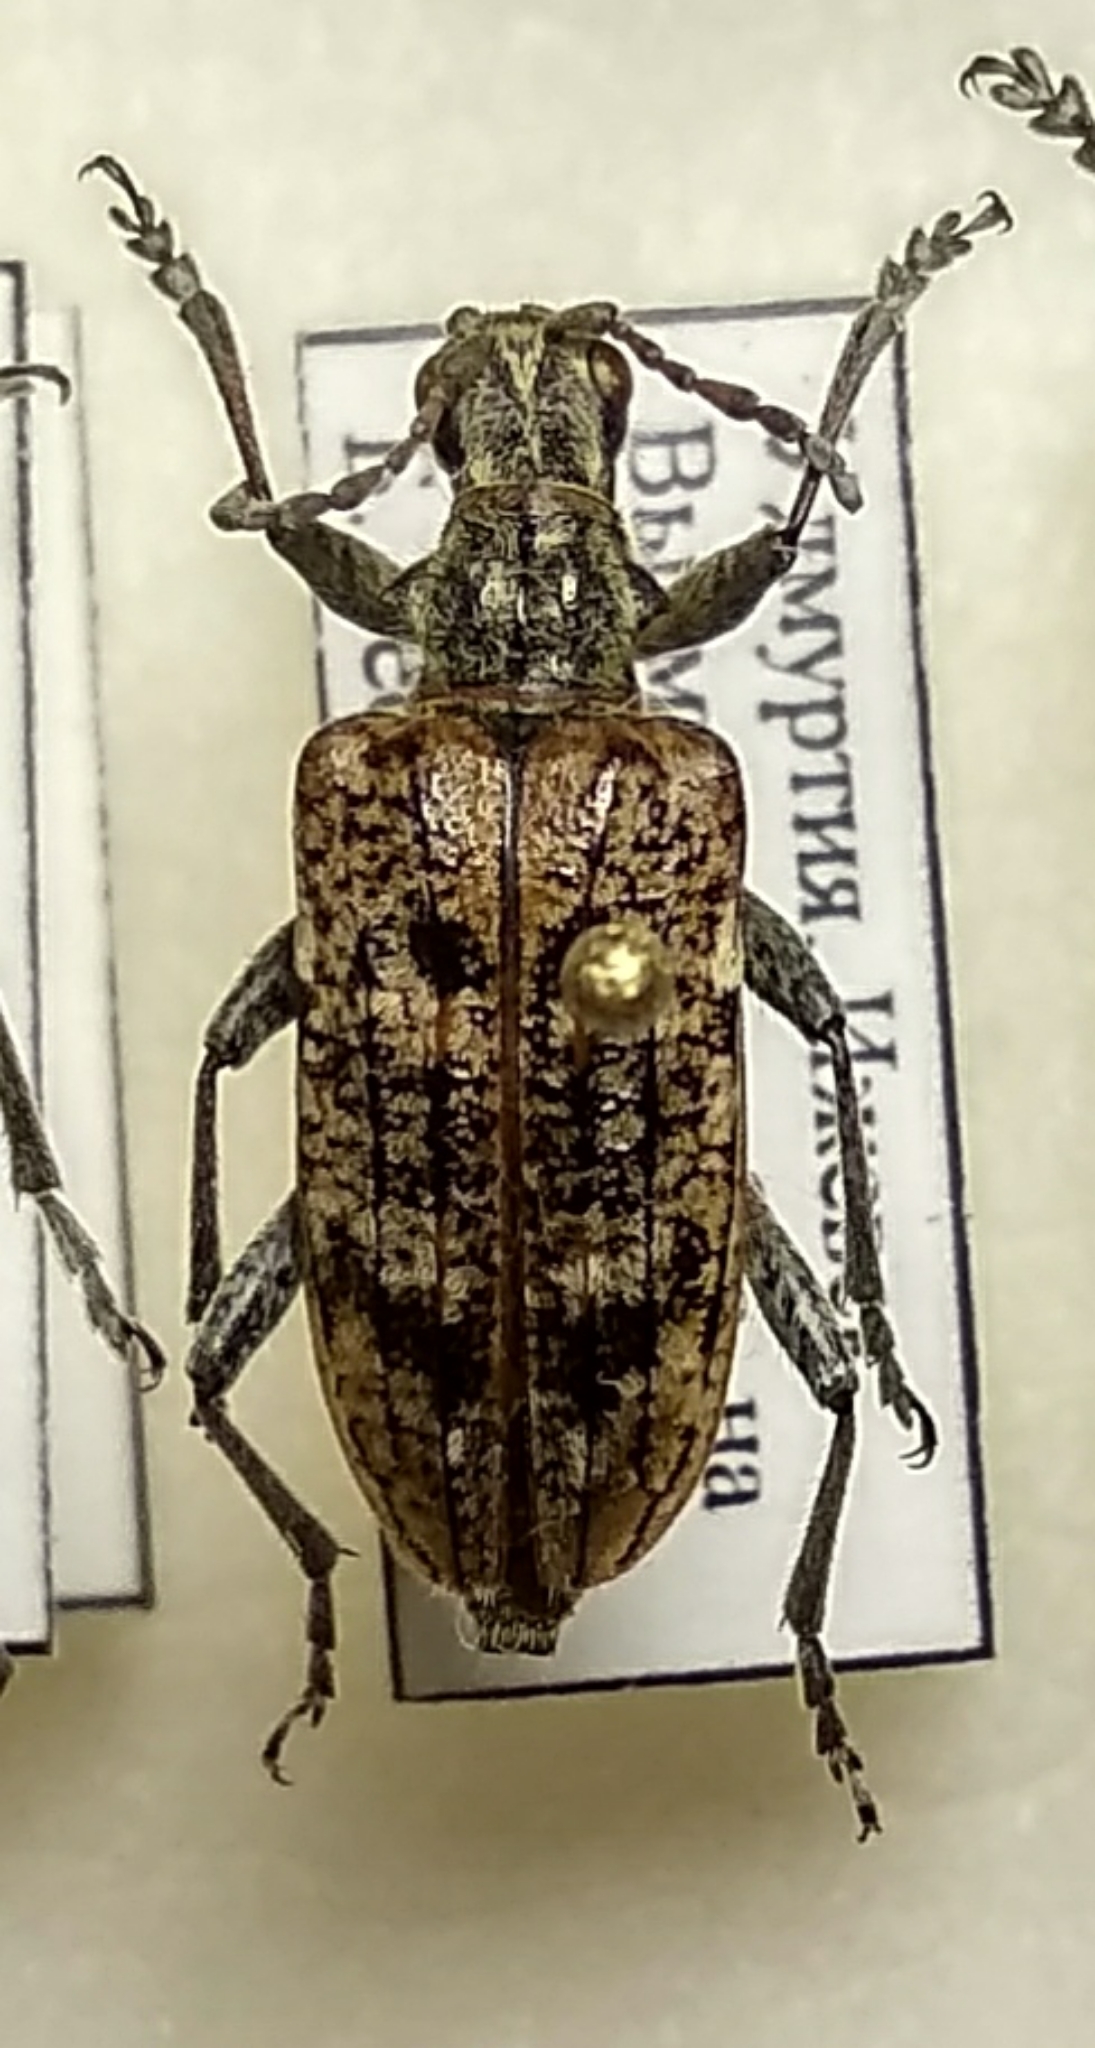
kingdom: Animalia
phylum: Arthropoda
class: Insecta
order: Coleoptera
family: Cerambycidae
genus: Rhagium
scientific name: Rhagium inquisitor
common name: Ribbed pine borer
